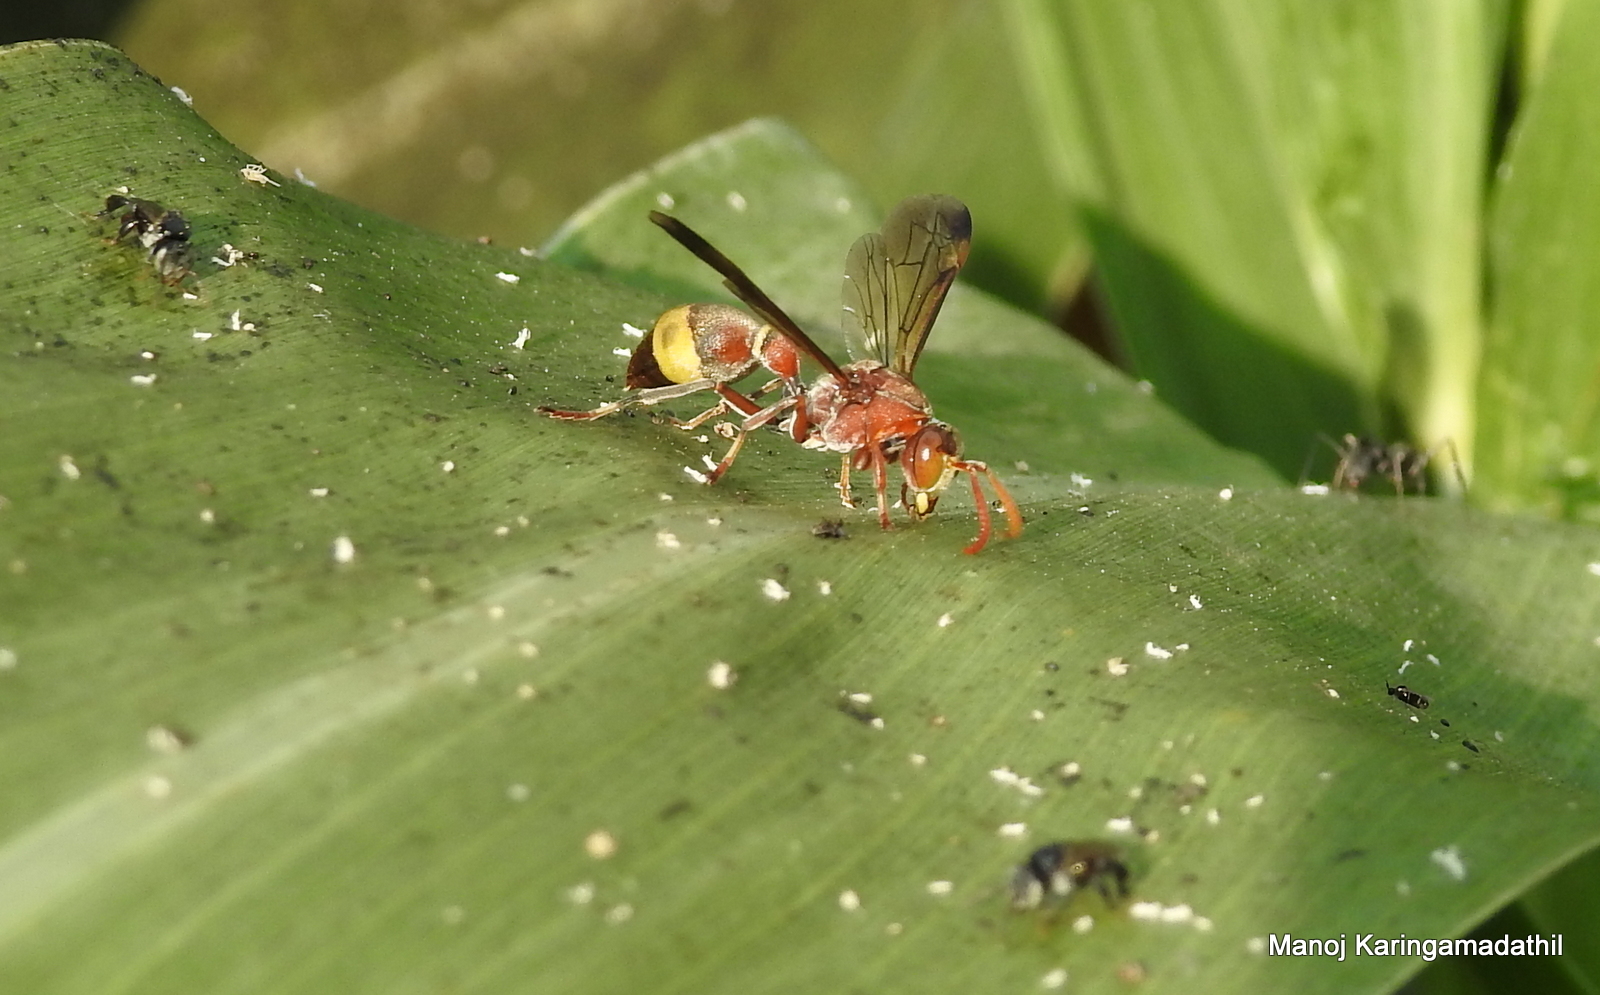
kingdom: Animalia
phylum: Arthropoda
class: Insecta
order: Hymenoptera
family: Vespidae
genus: Ropalidia
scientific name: Ropalidia
